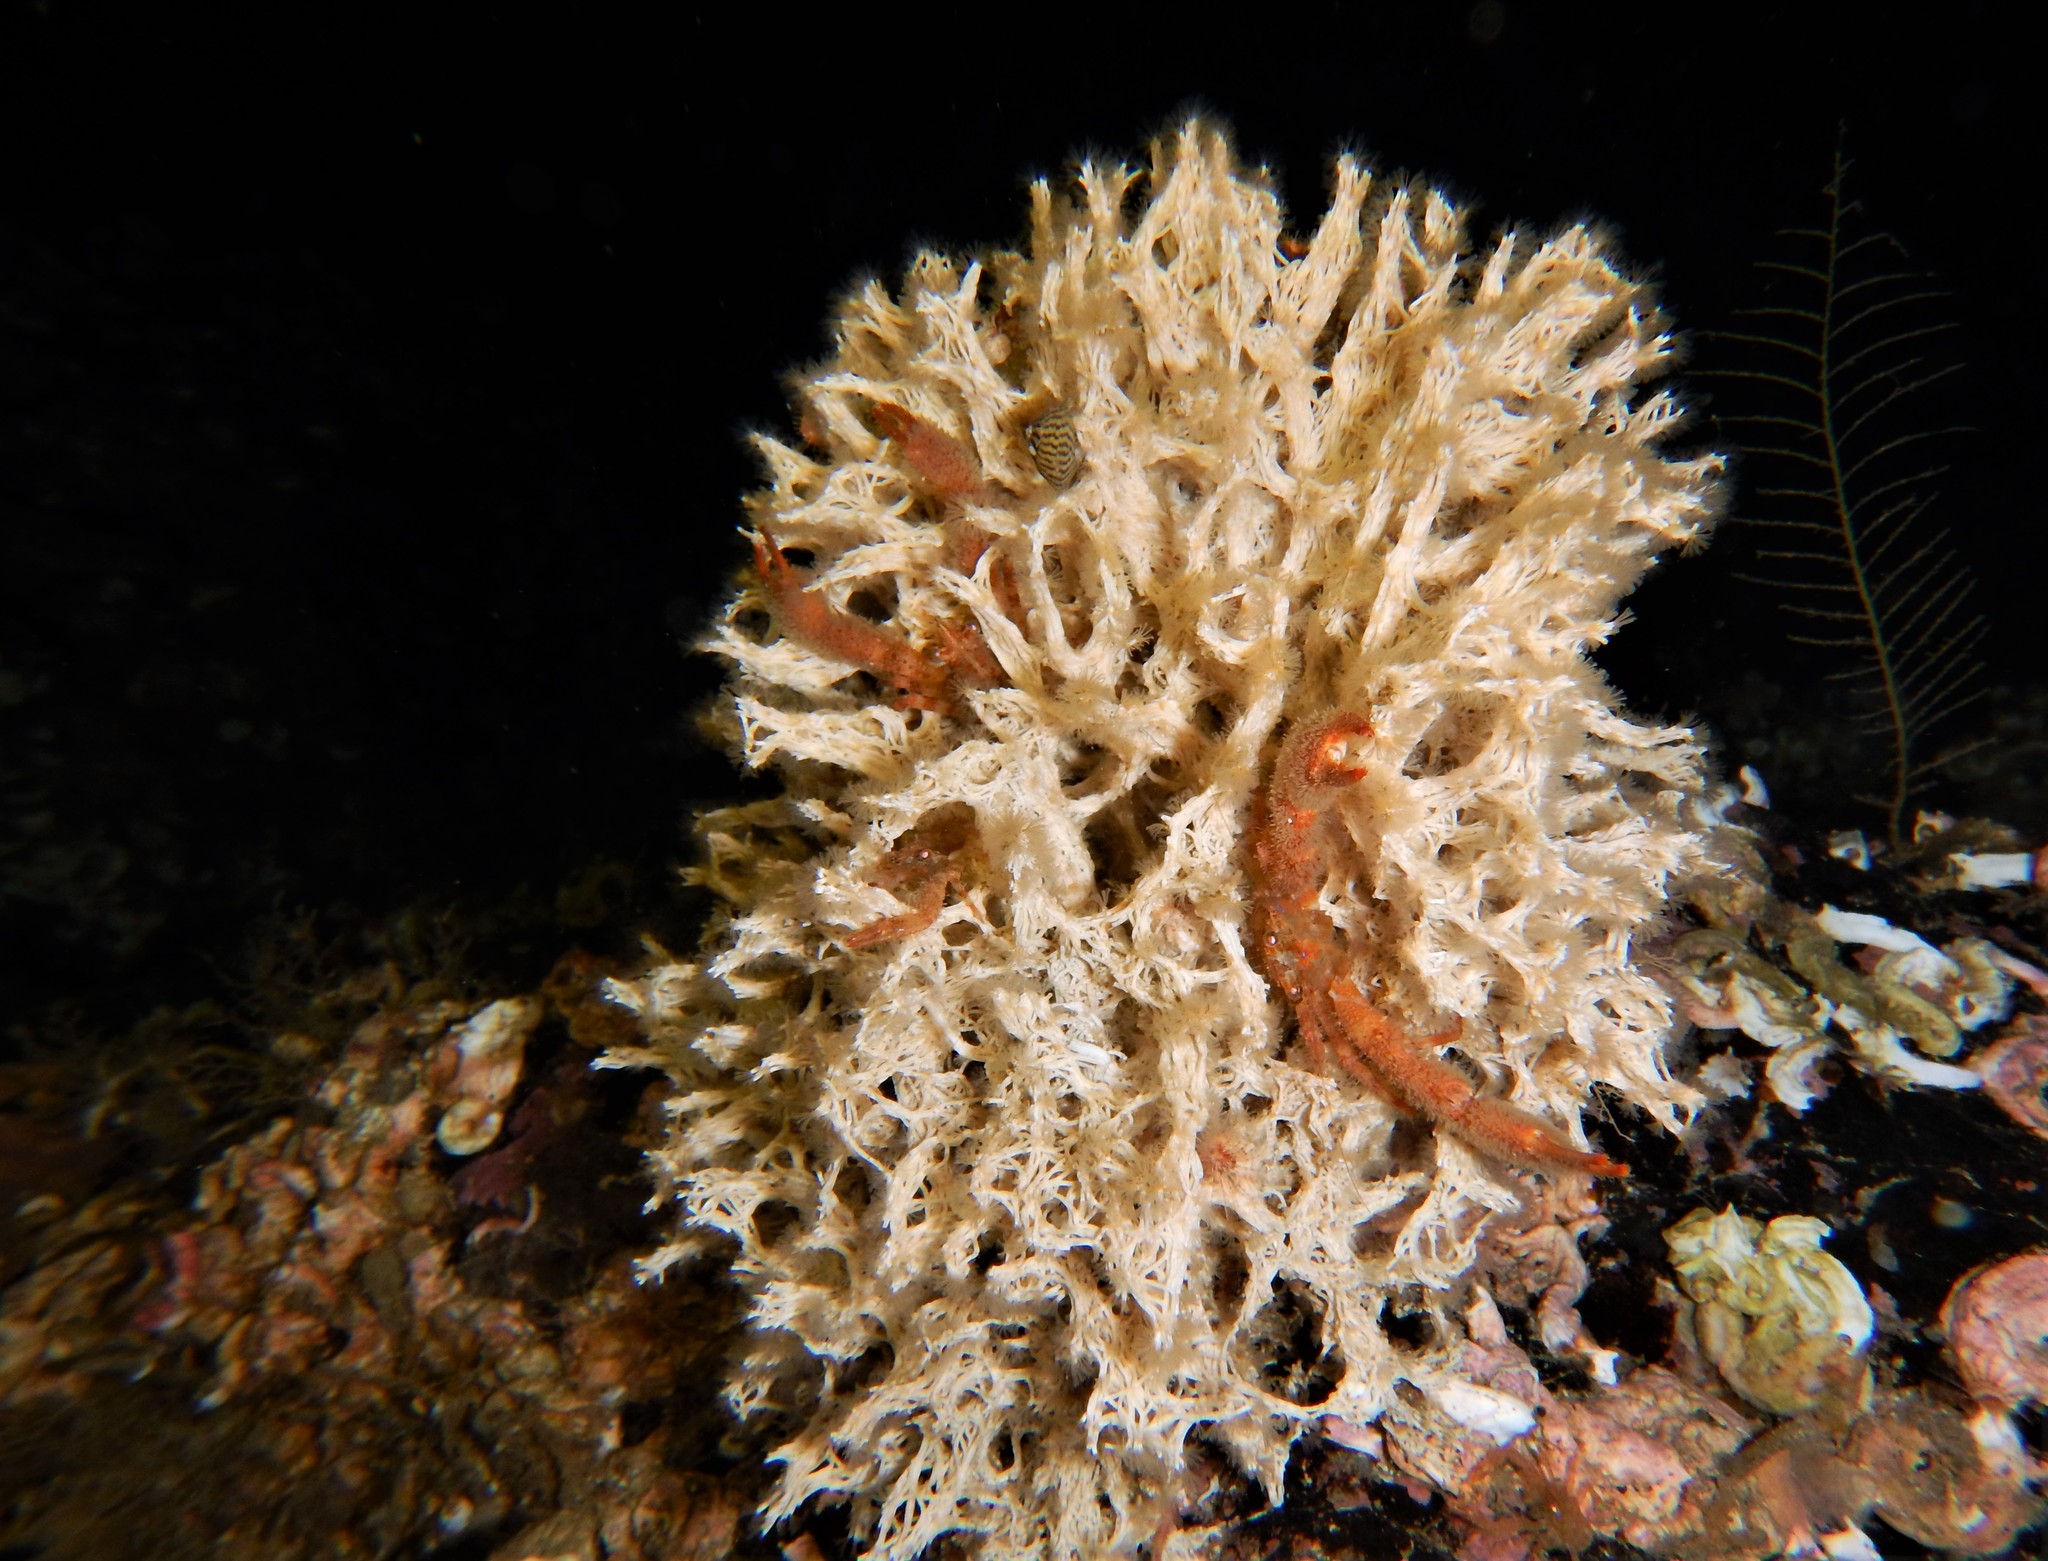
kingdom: Animalia
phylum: Annelida
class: Polychaeta
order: Sabellida
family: Serpulidae
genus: Filograna
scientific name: Filograna implexa
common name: Coral worm
